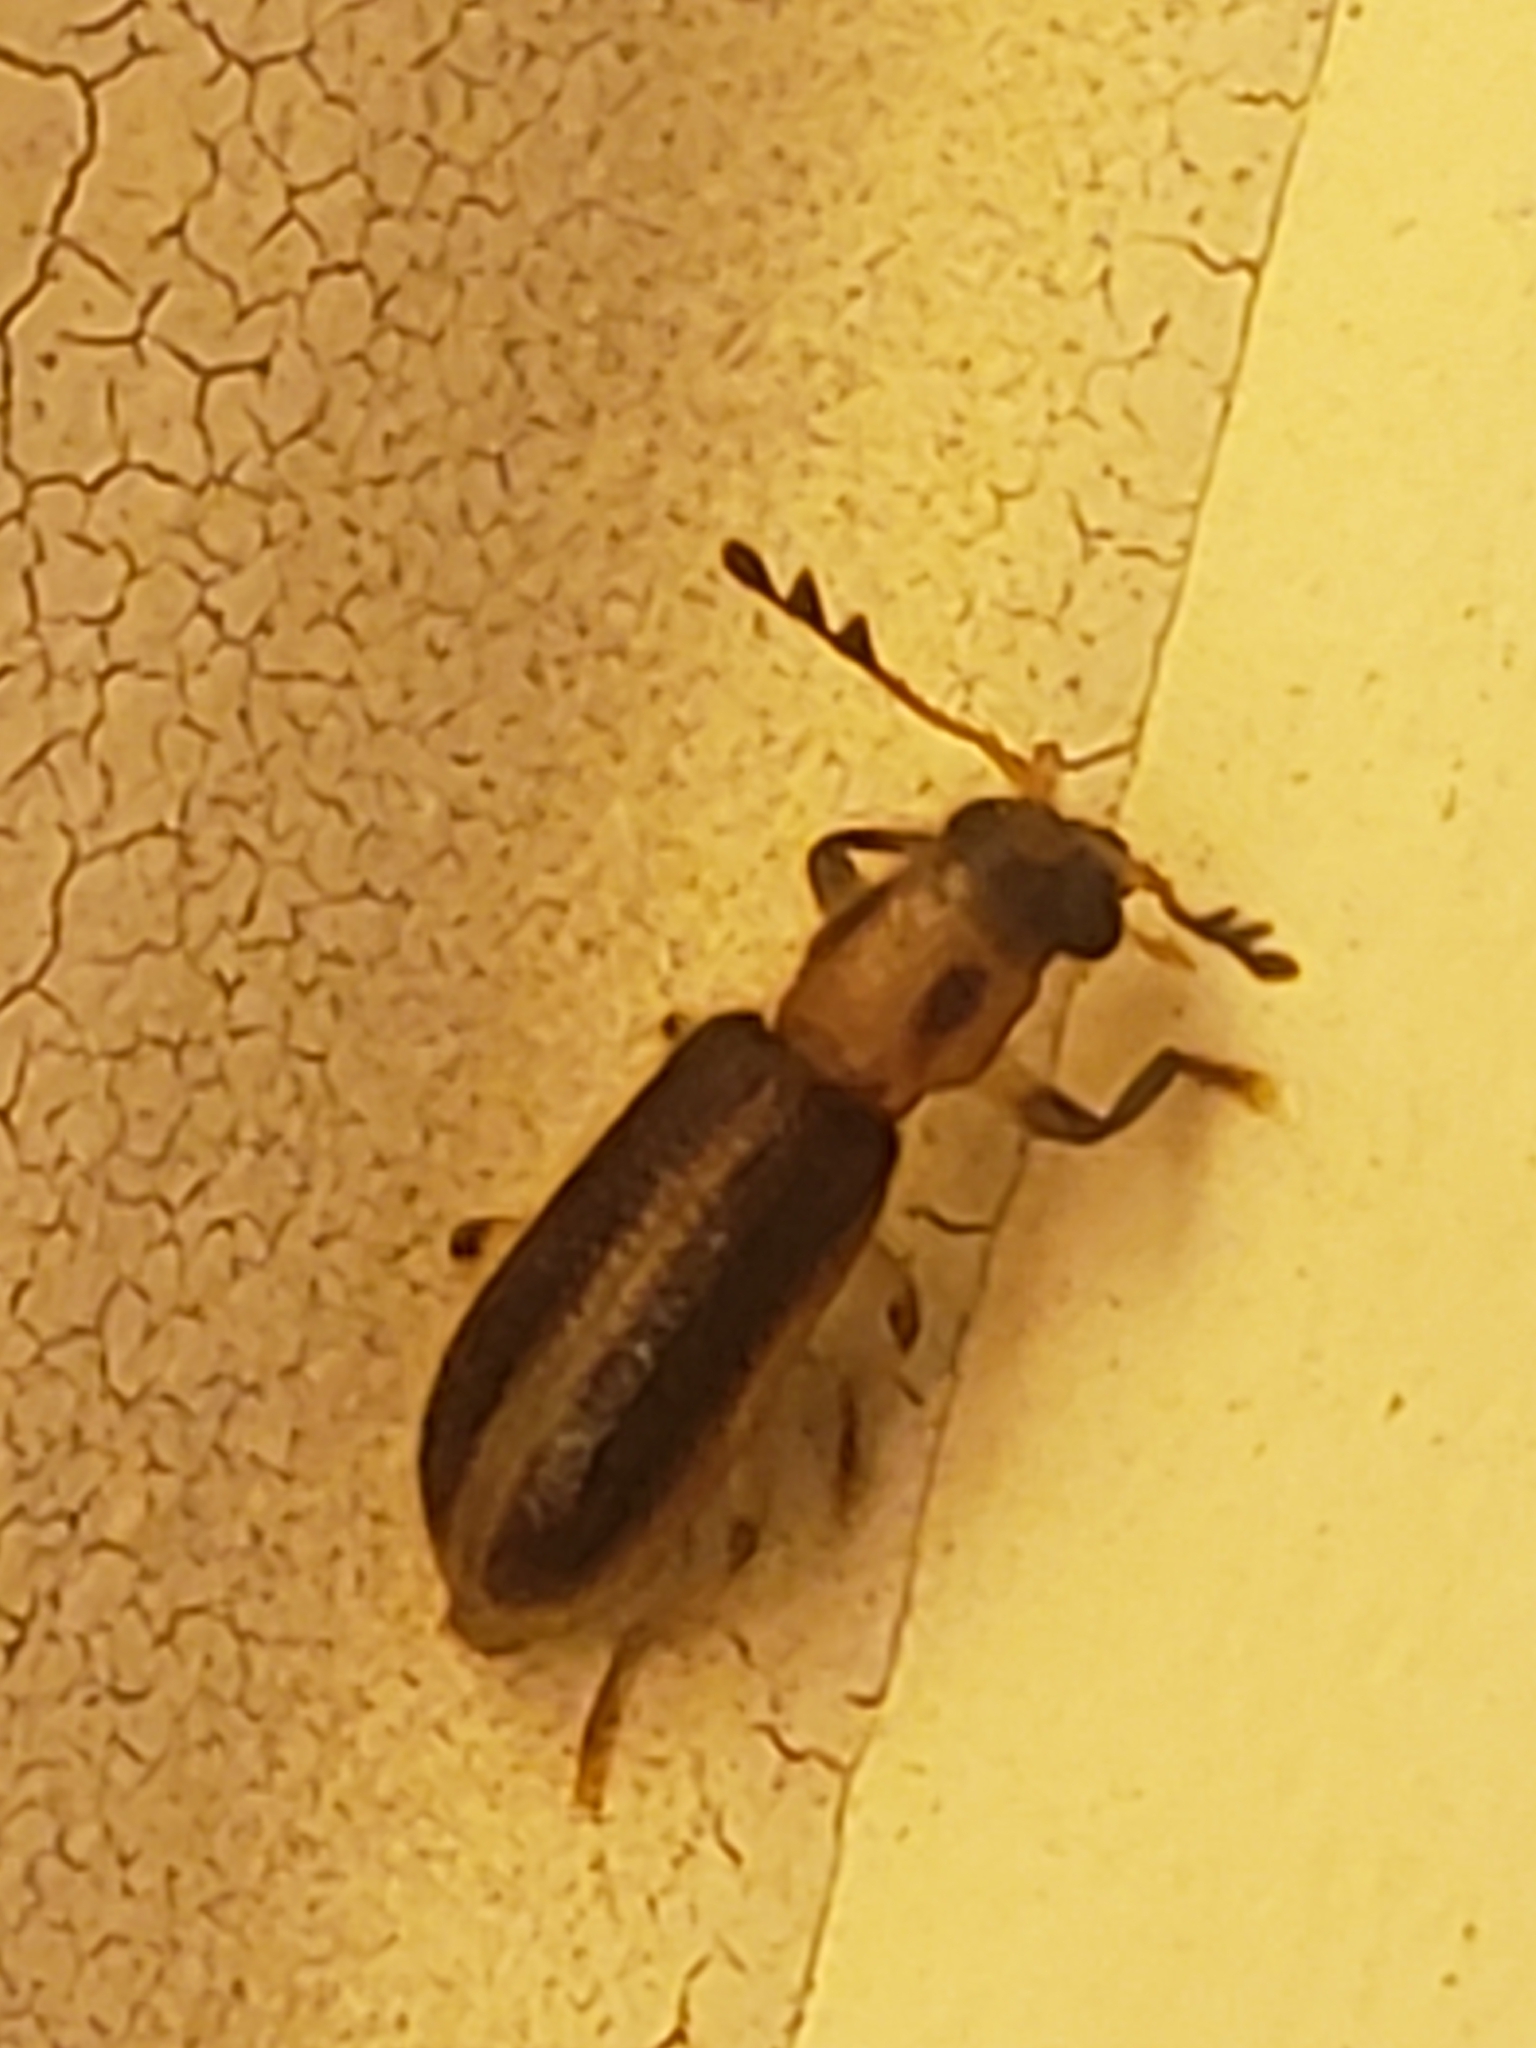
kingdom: Animalia
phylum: Arthropoda
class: Insecta
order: Coleoptera
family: Cleridae
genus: Cregya
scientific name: Cregya oculata
